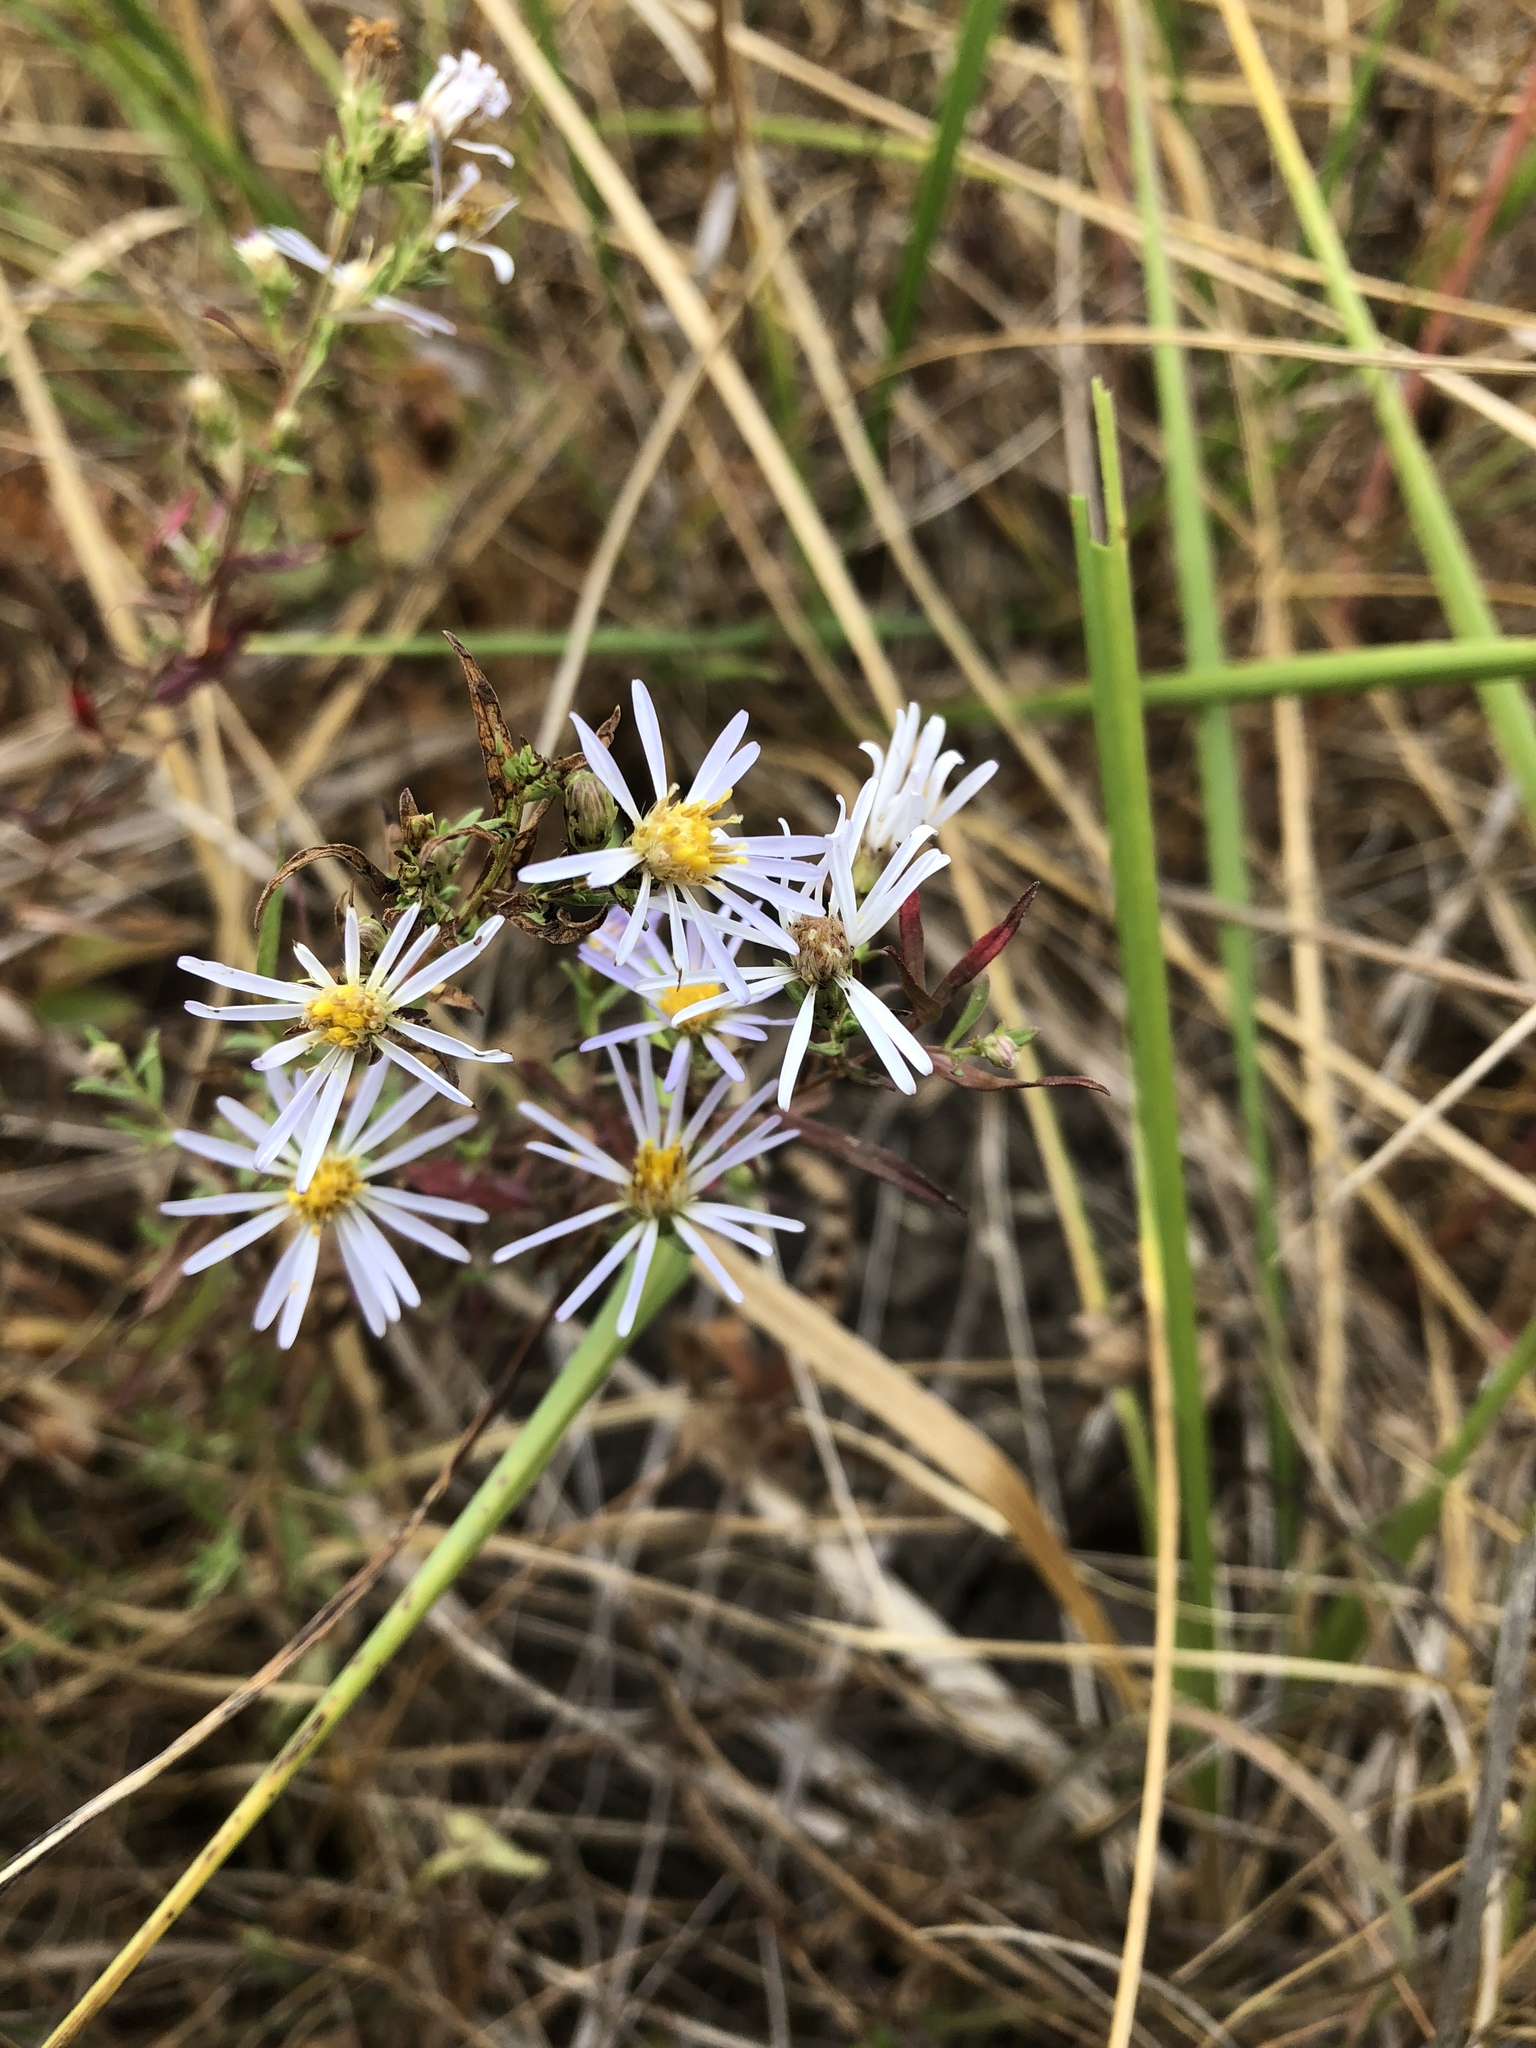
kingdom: Plantae
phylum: Tracheophyta
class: Magnoliopsida
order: Asterales
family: Asteraceae
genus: Symphyotrichum
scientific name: Symphyotrichum hallii
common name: Hall's aster
